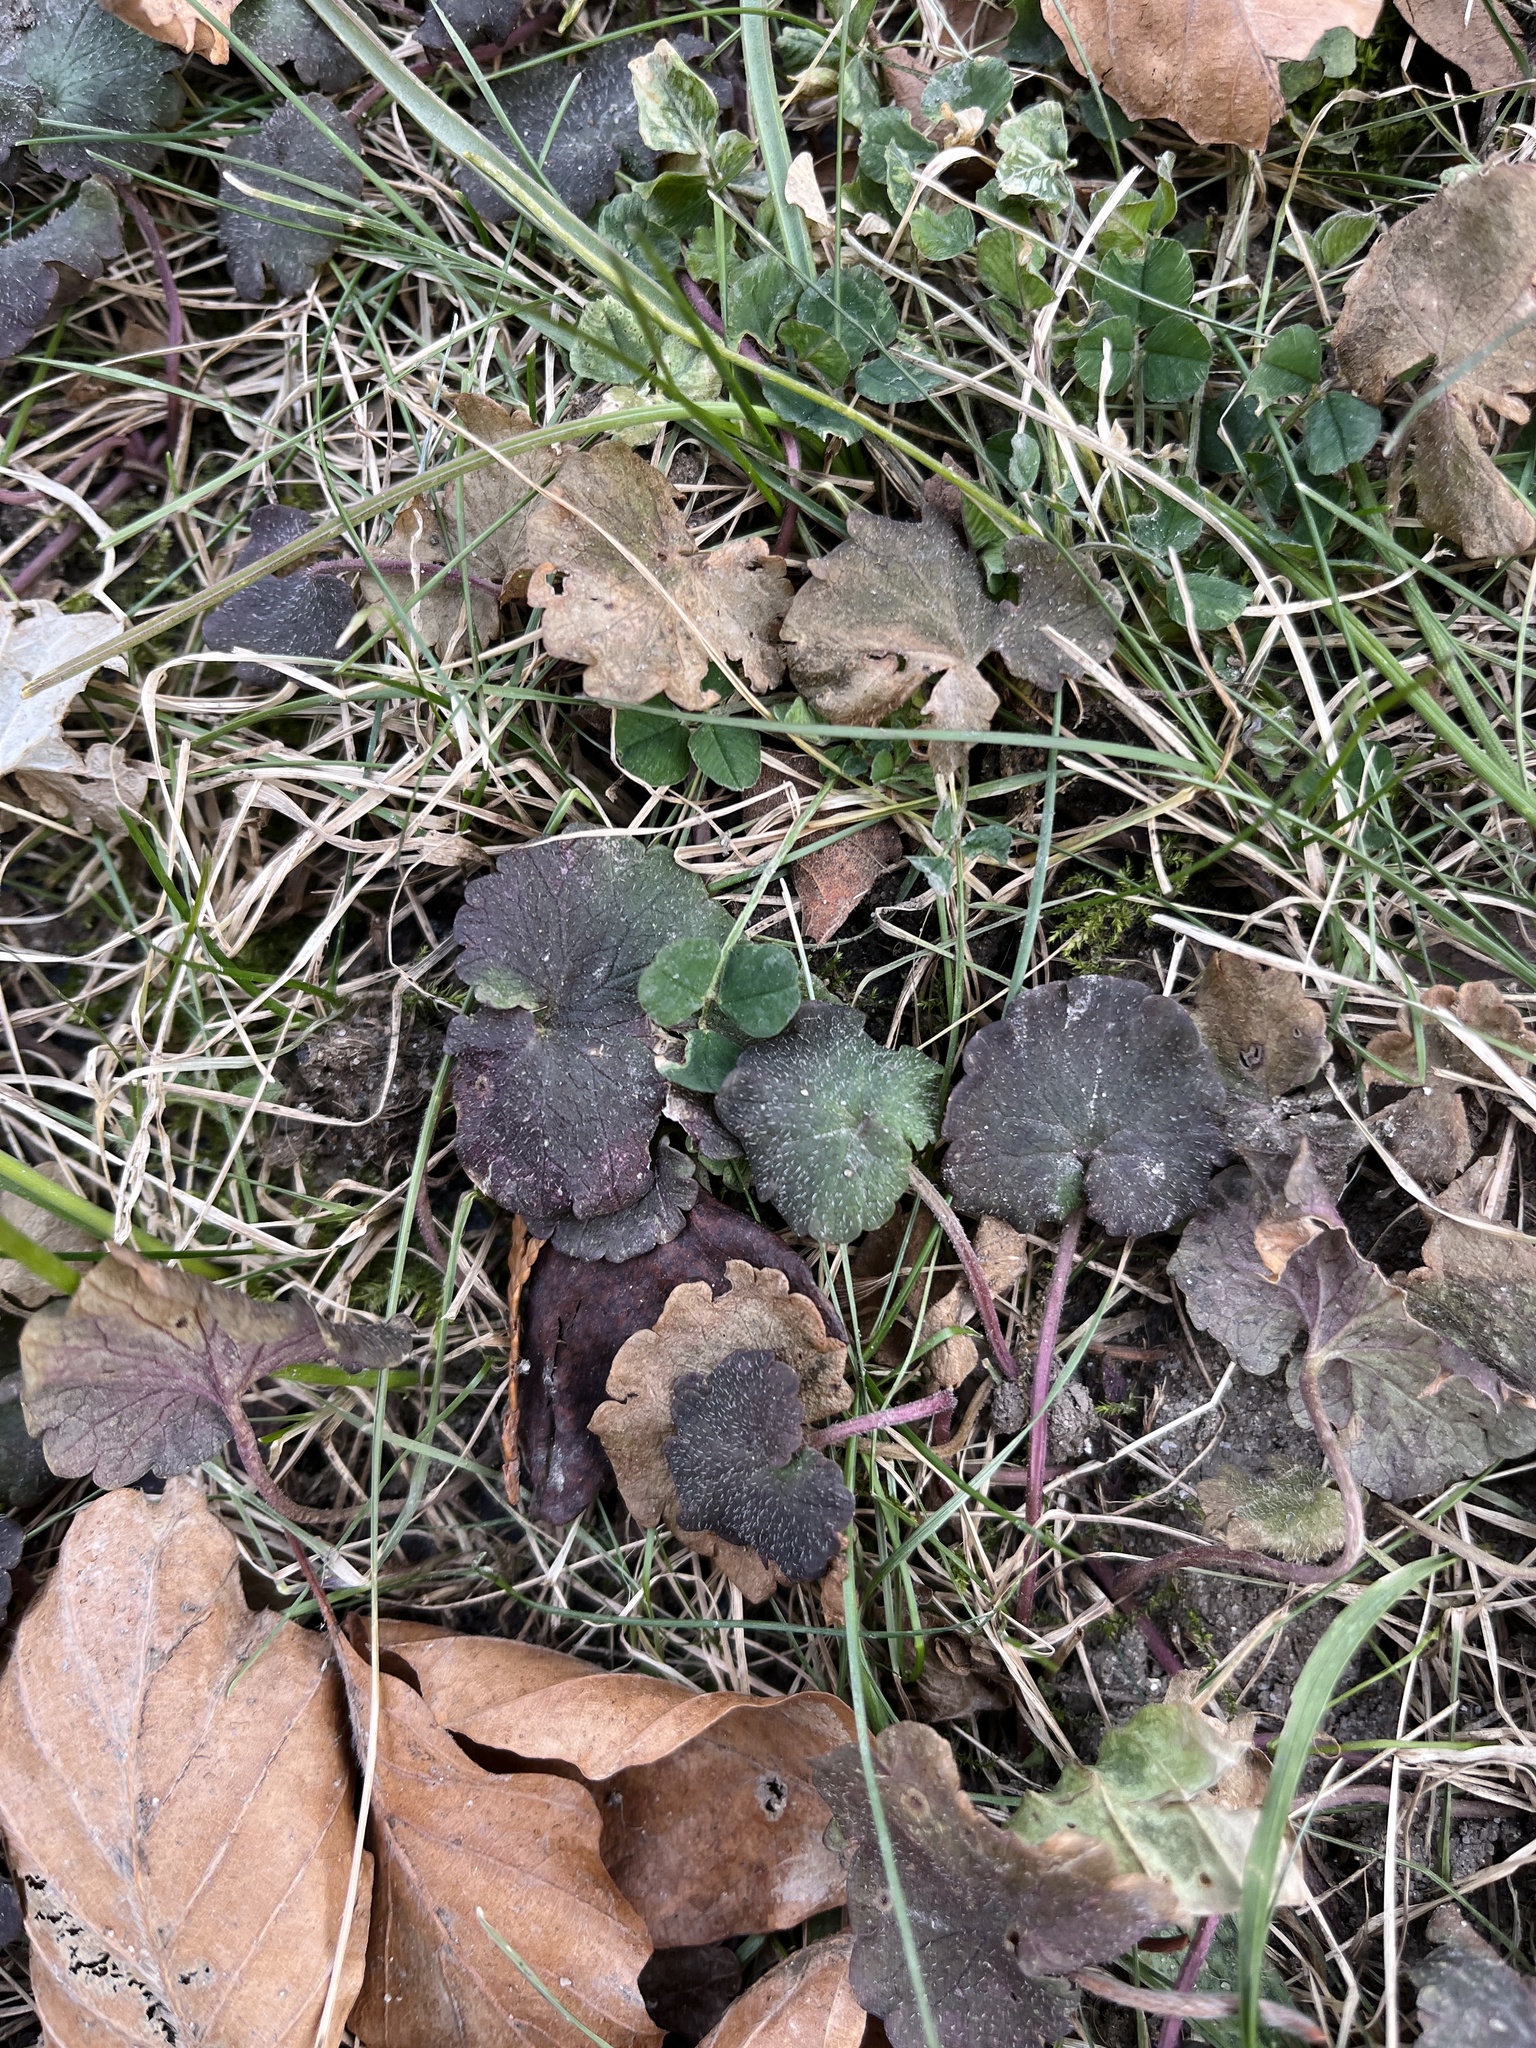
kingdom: Plantae
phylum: Tracheophyta
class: Magnoliopsida
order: Lamiales
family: Lamiaceae
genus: Glechoma
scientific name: Glechoma hederacea
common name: Ground ivy
